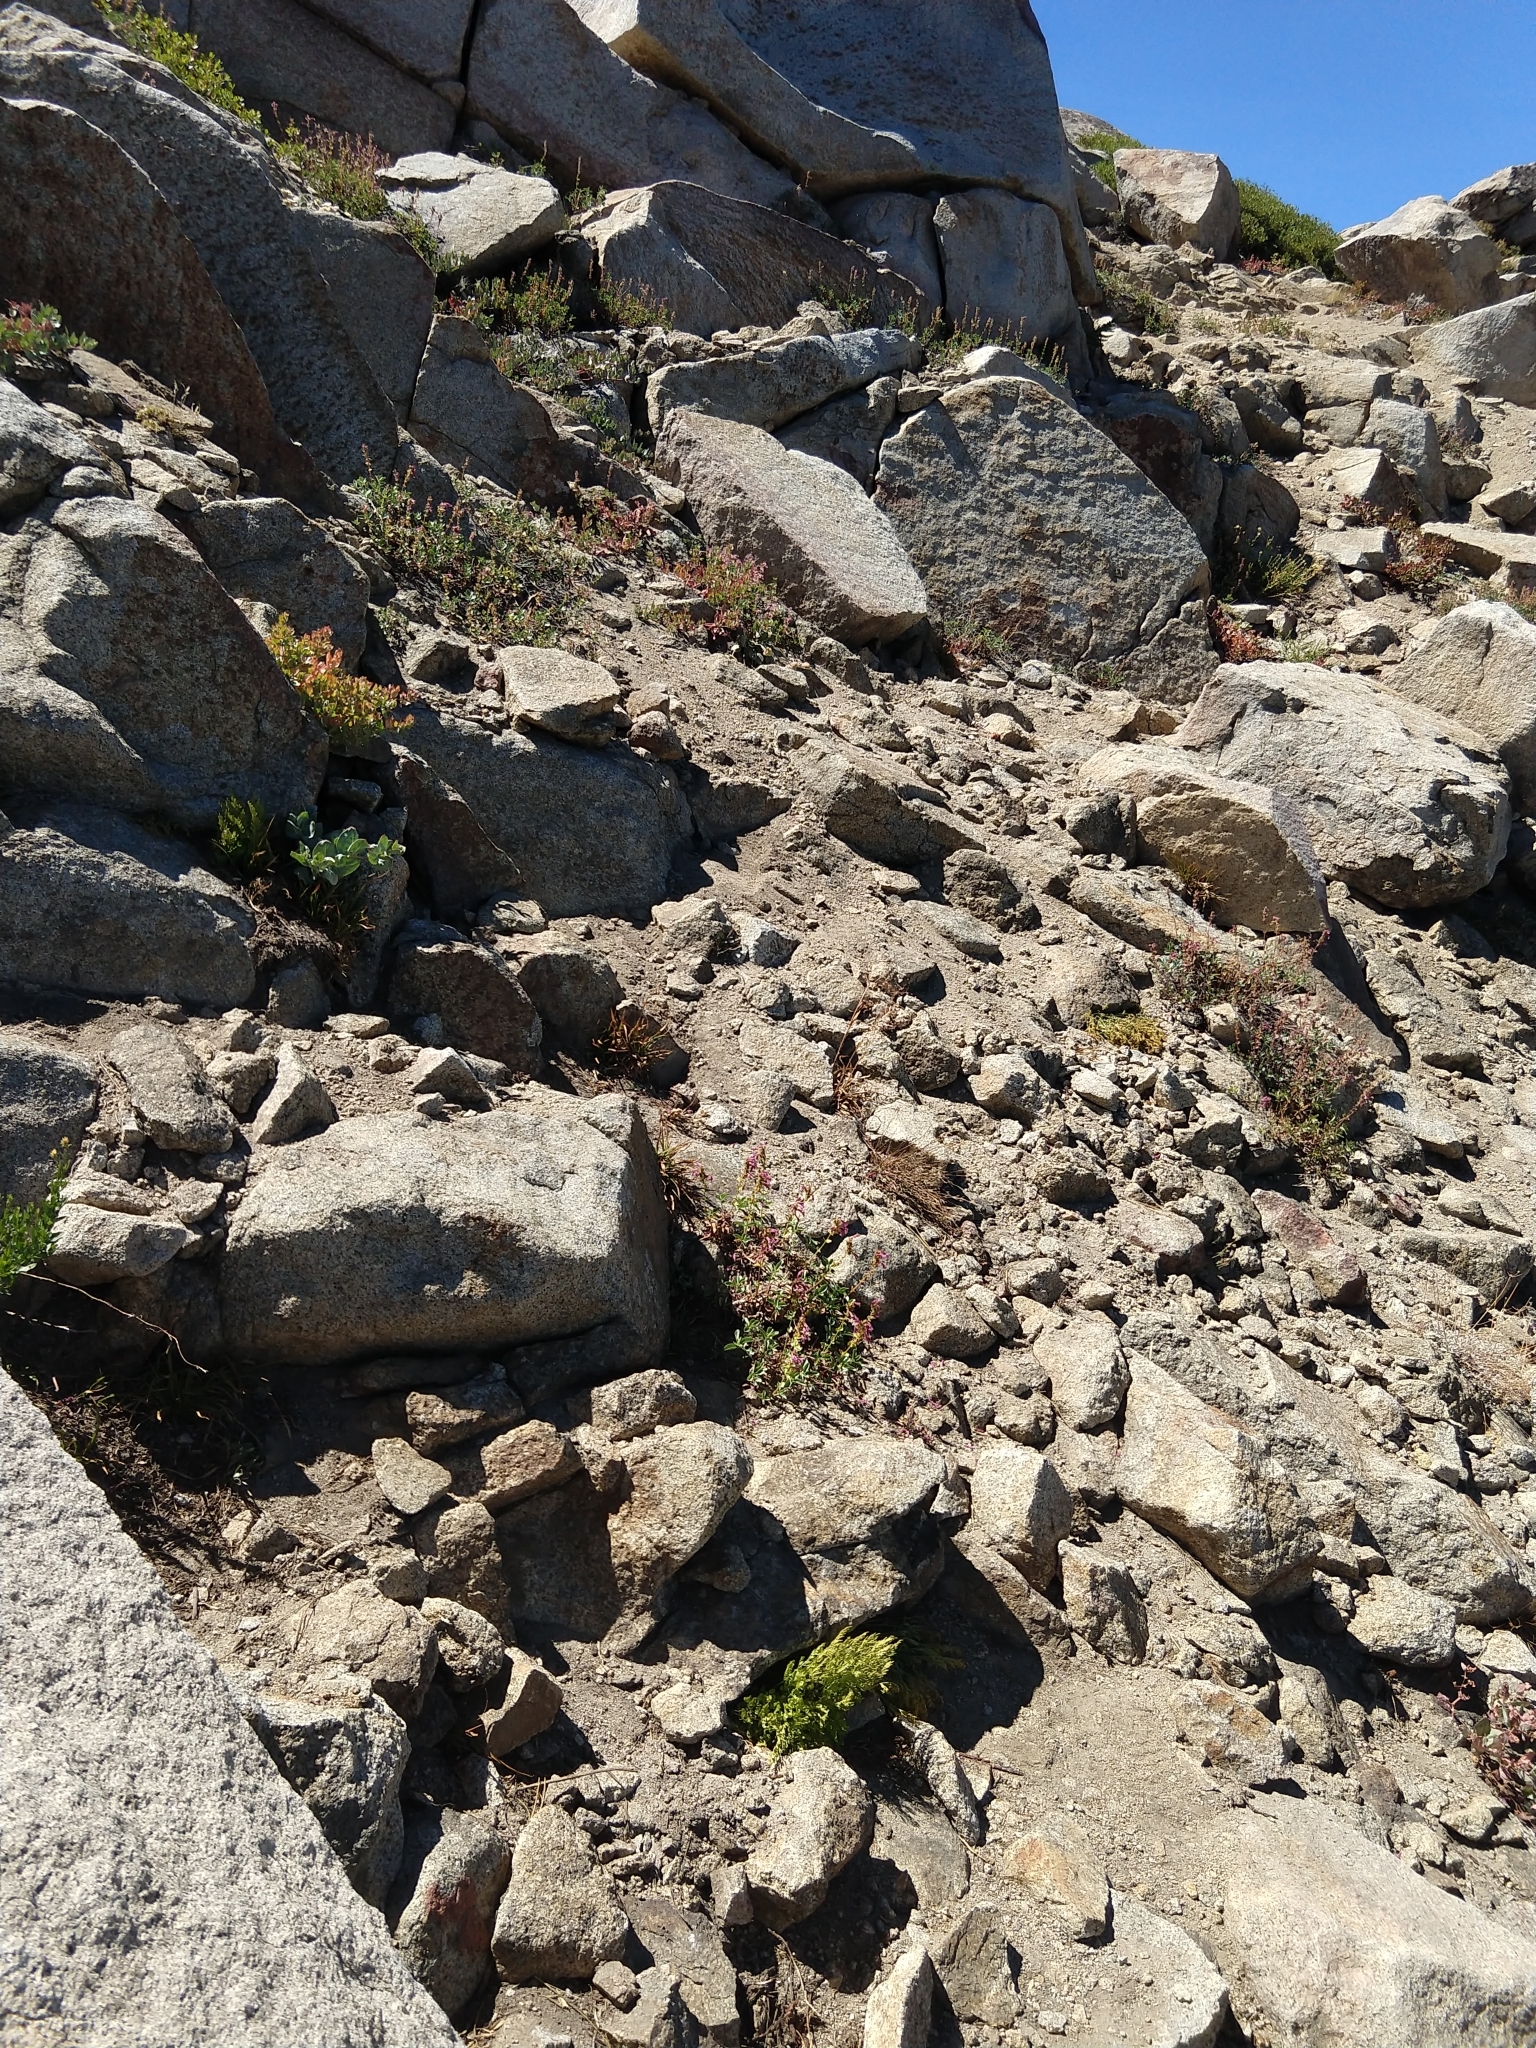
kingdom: Plantae
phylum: Tracheophyta
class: Magnoliopsida
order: Lamiales
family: Plantaginaceae
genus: Penstemon
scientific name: Penstemon newberryi
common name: Mountain-pride
